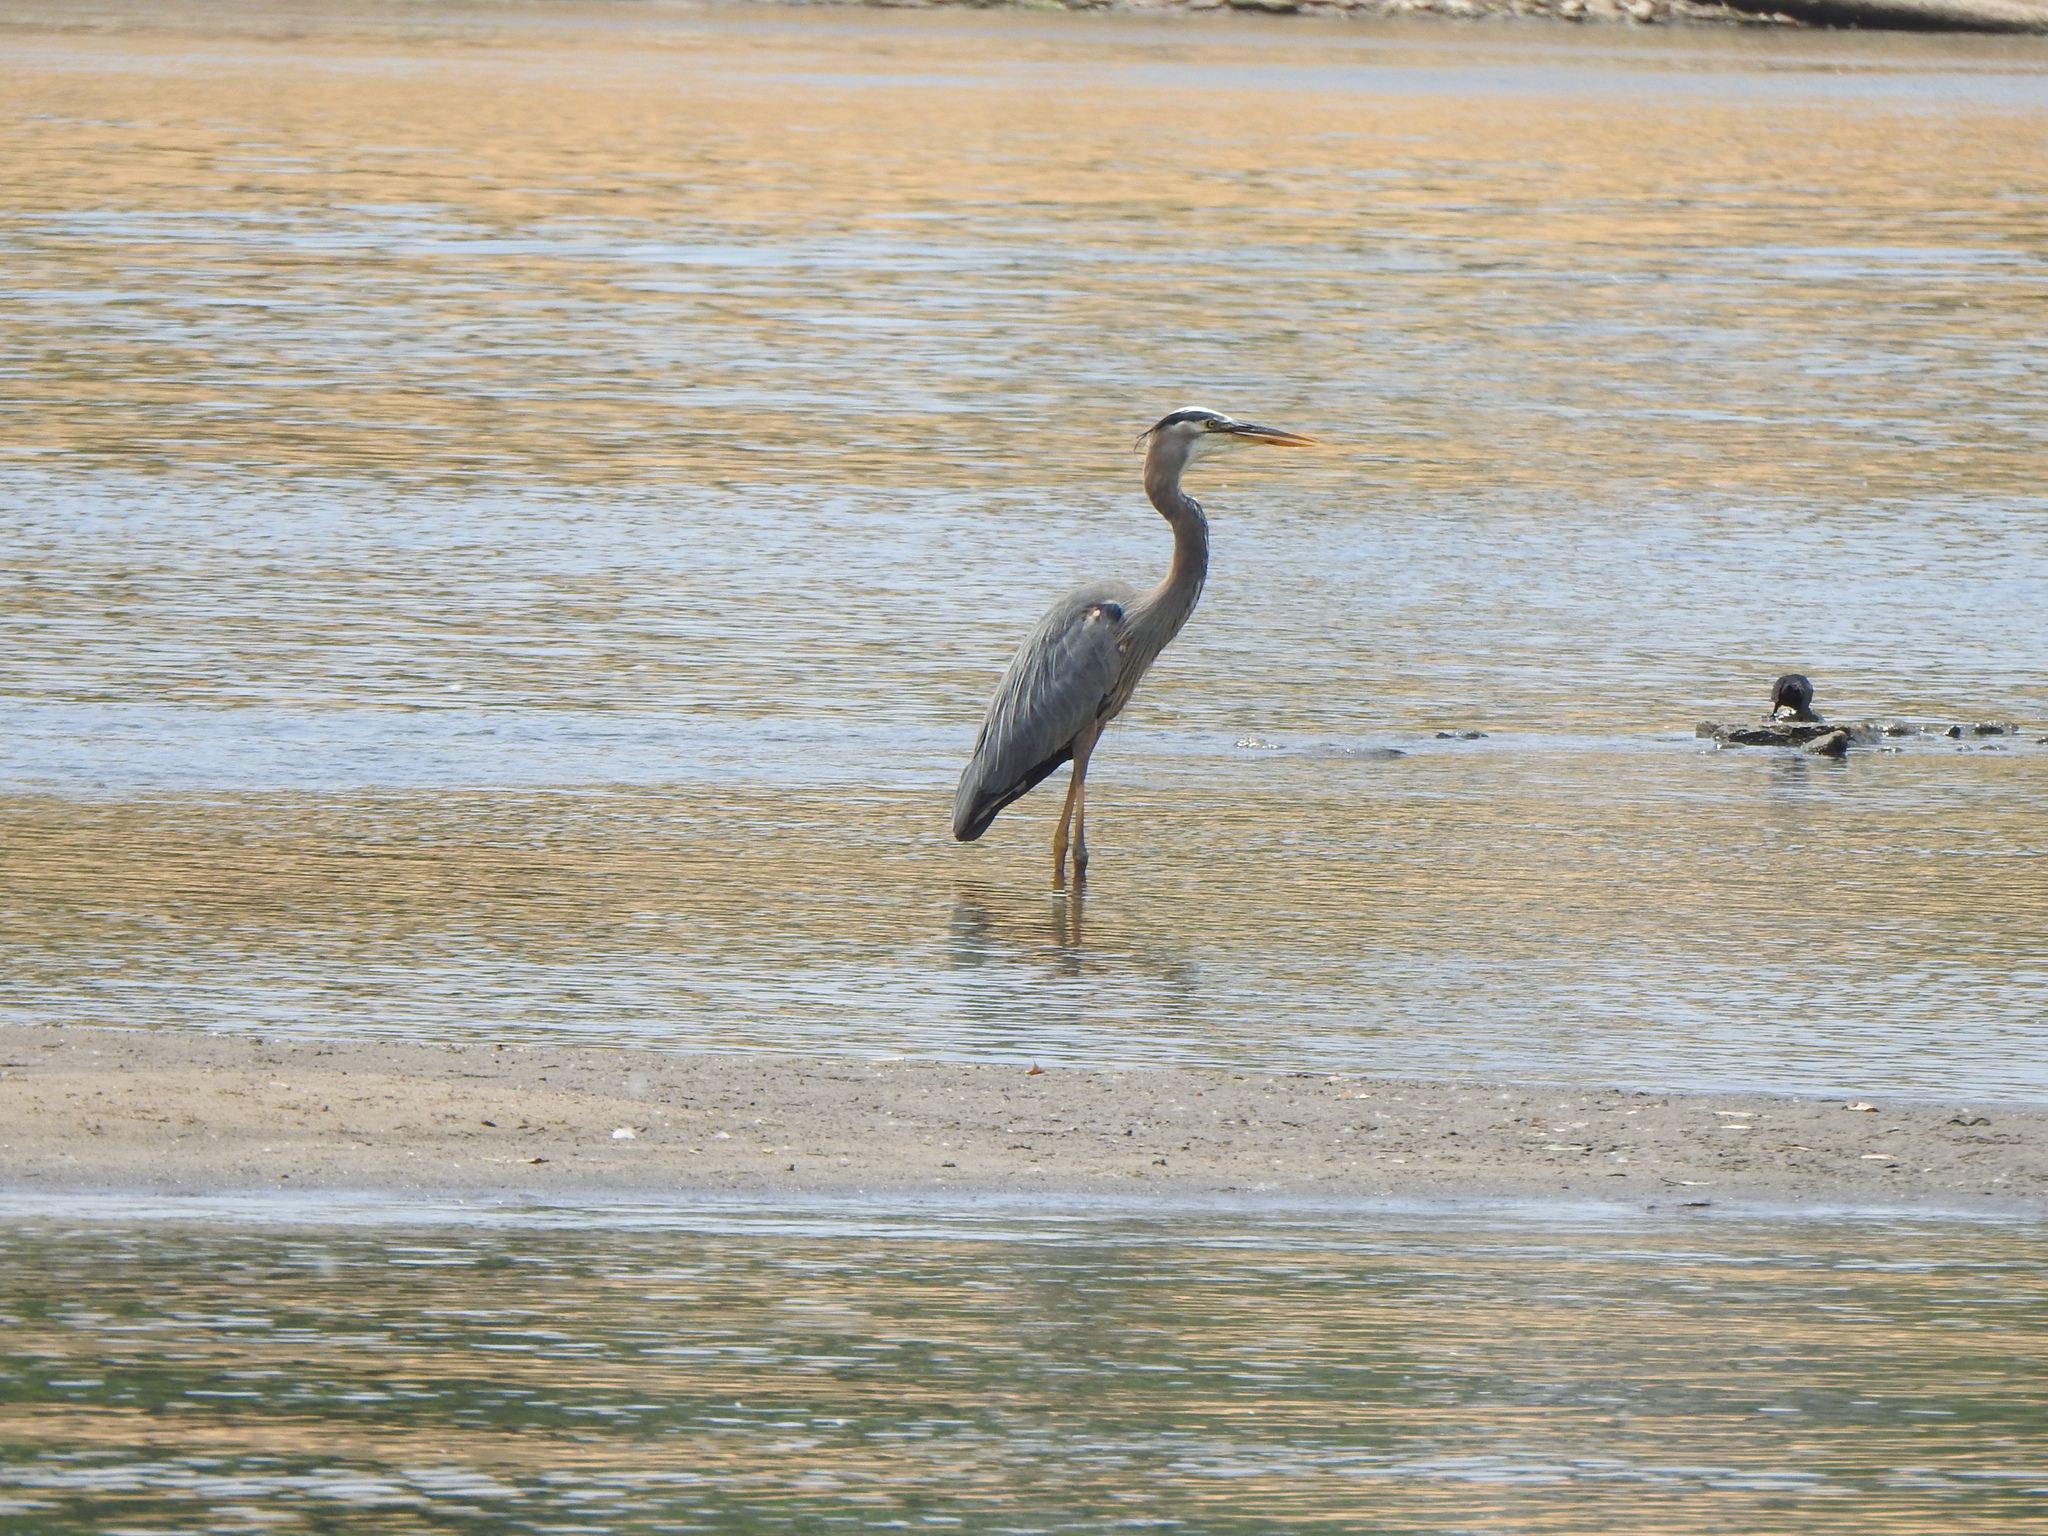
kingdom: Animalia
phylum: Chordata
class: Aves
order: Pelecaniformes
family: Ardeidae
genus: Ardea
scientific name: Ardea herodias
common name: Great blue heron
